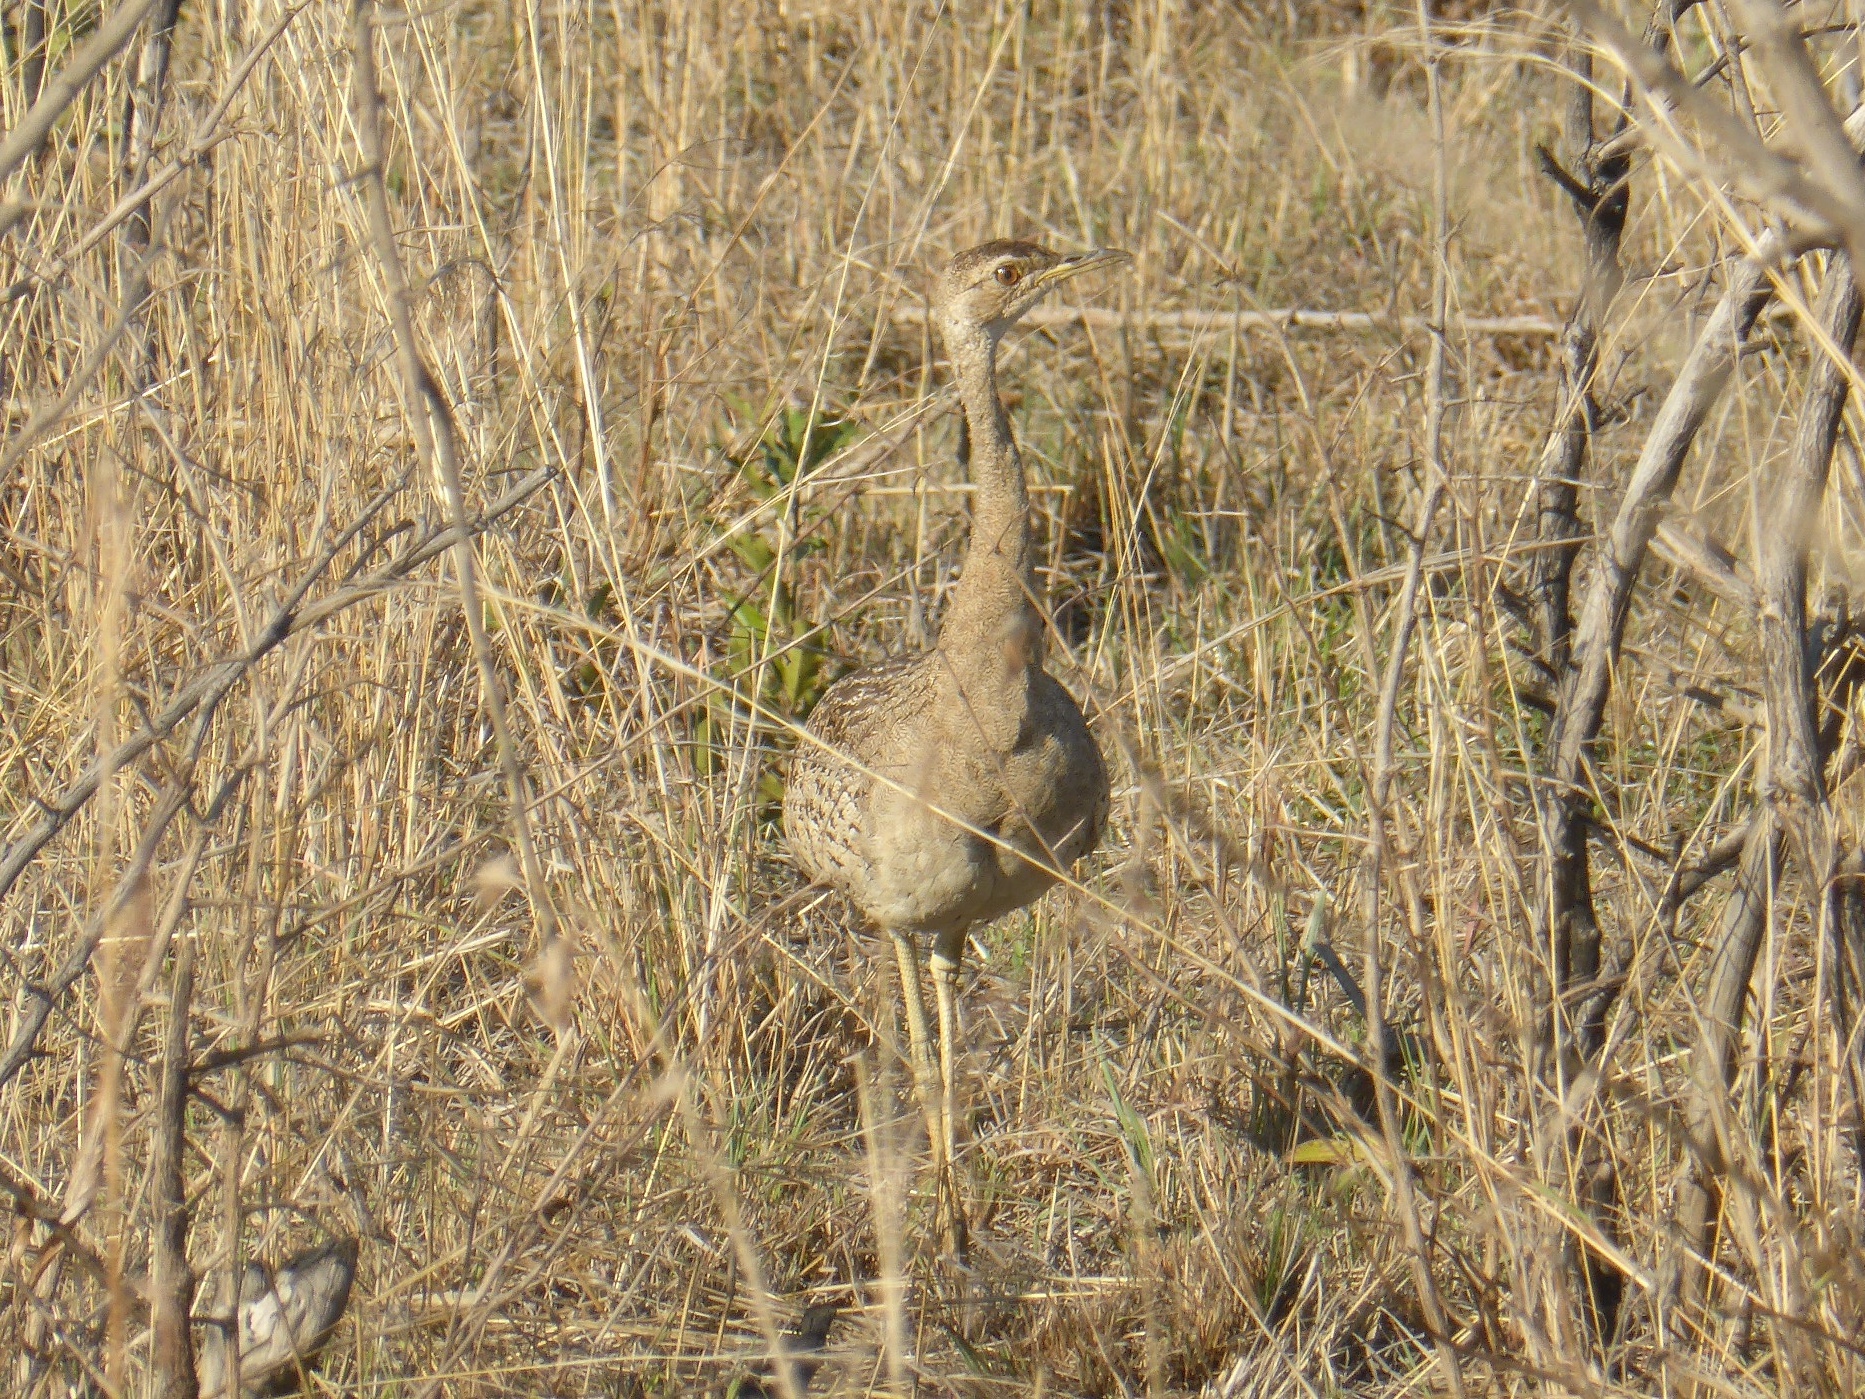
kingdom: Animalia
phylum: Chordata
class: Aves
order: Otidiformes
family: Otididae
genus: Lissotis
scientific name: Lissotis melanogaster
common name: Black-bellied bustard
